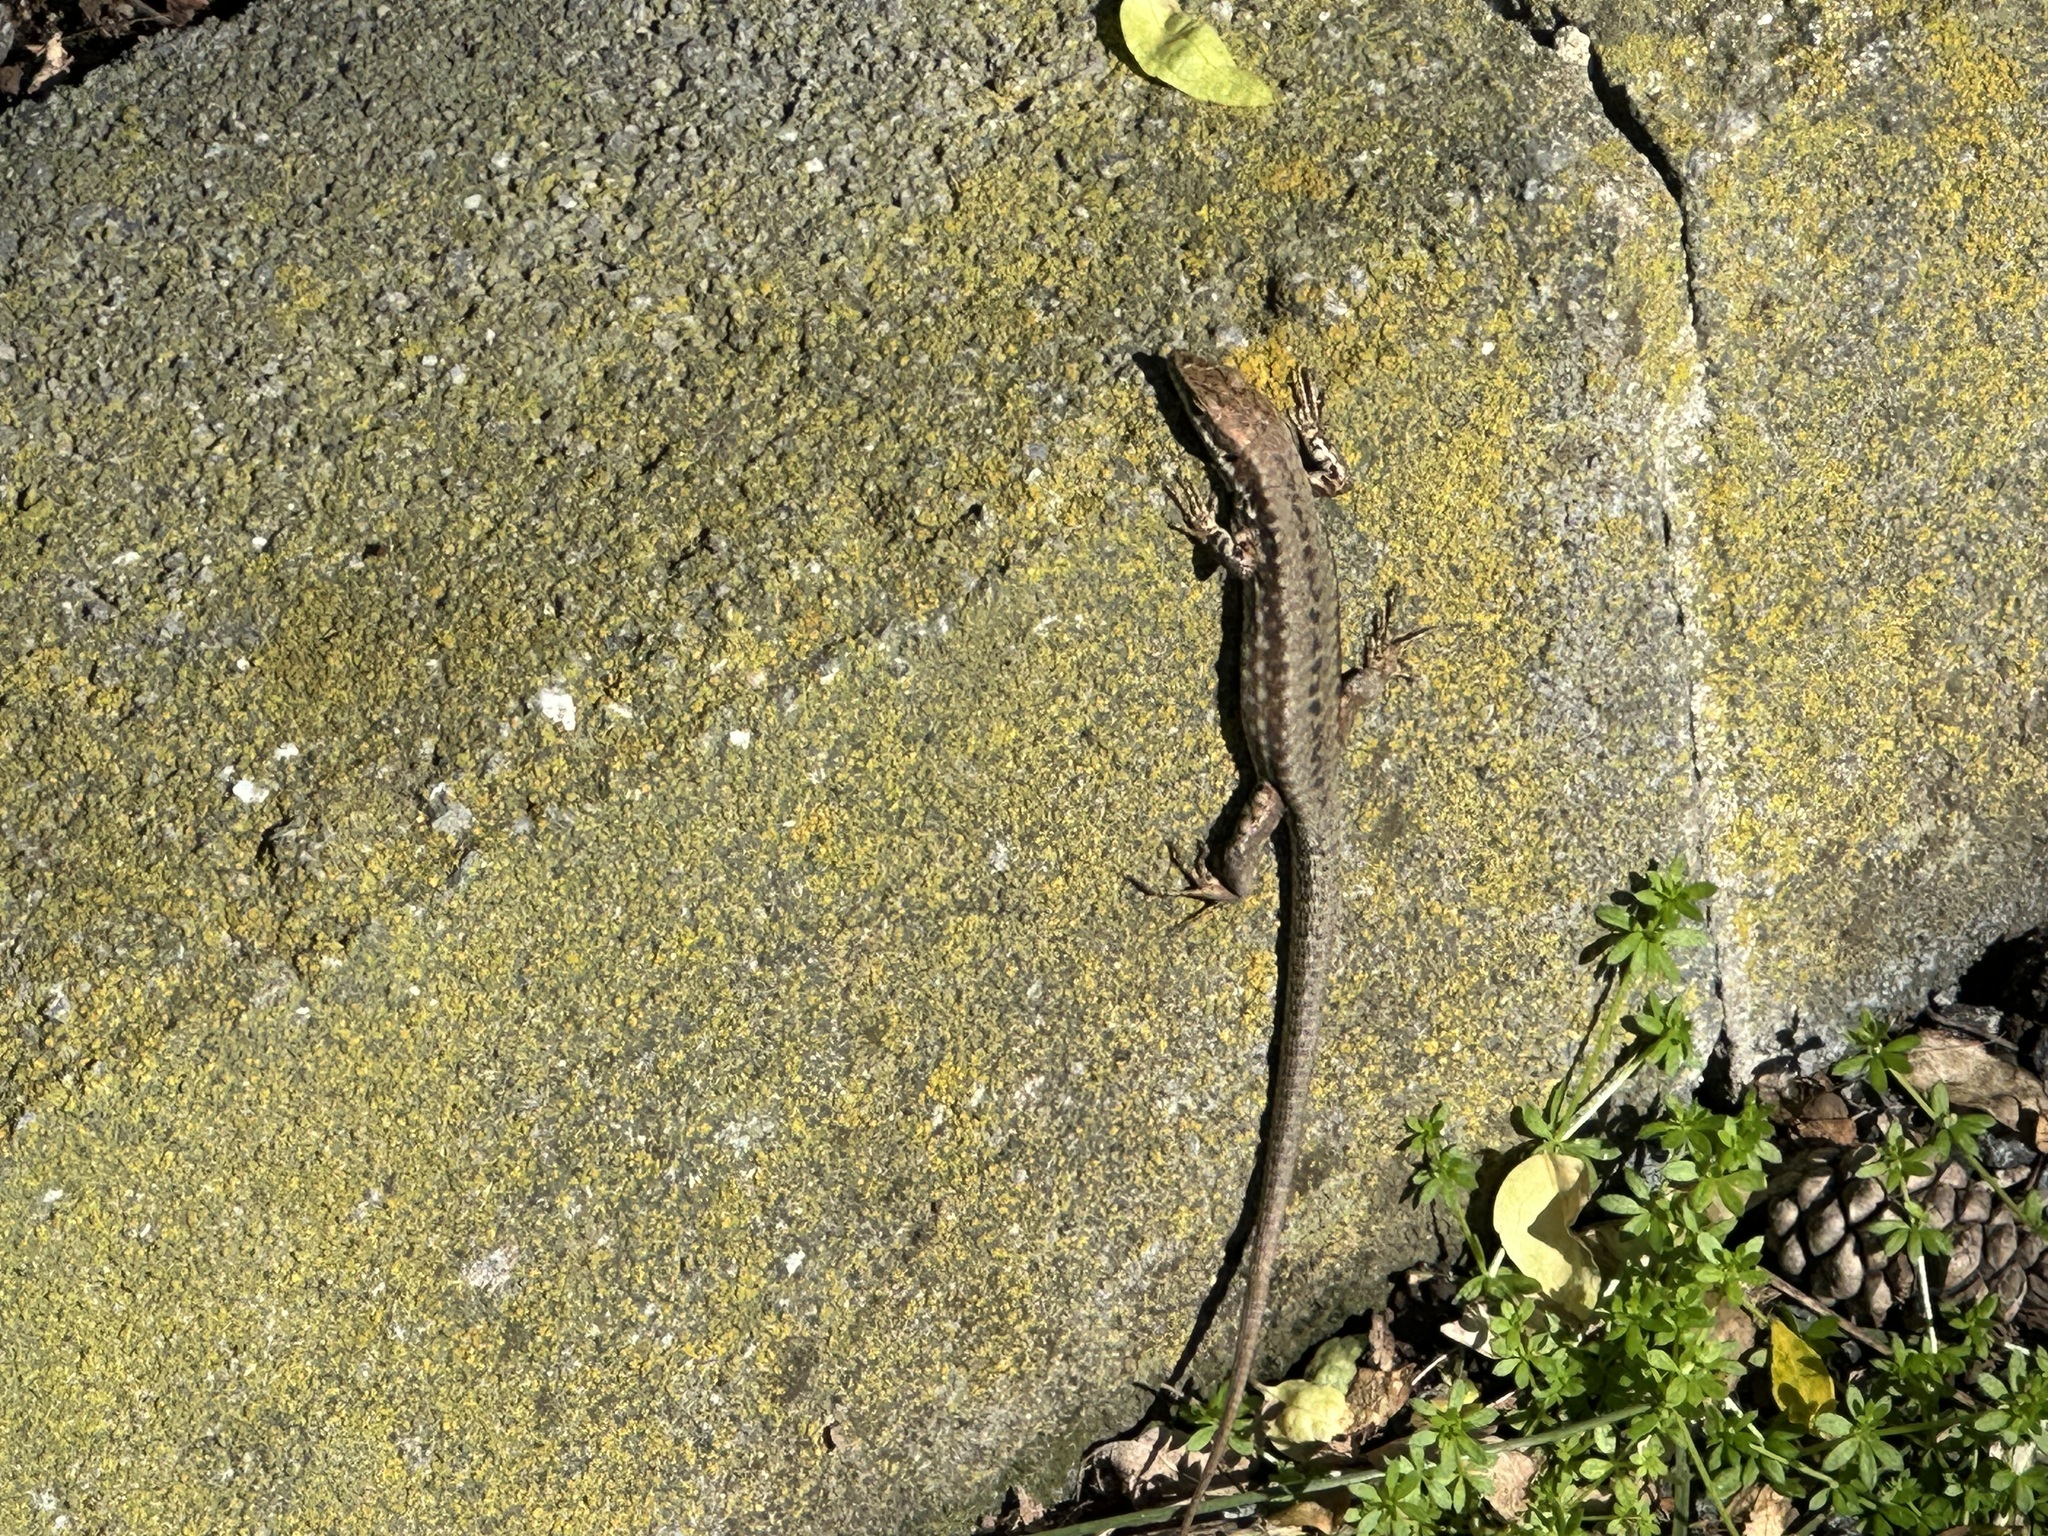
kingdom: Animalia
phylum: Chordata
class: Squamata
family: Lacertidae
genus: Podarcis
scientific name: Podarcis muralis
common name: Common wall lizard
